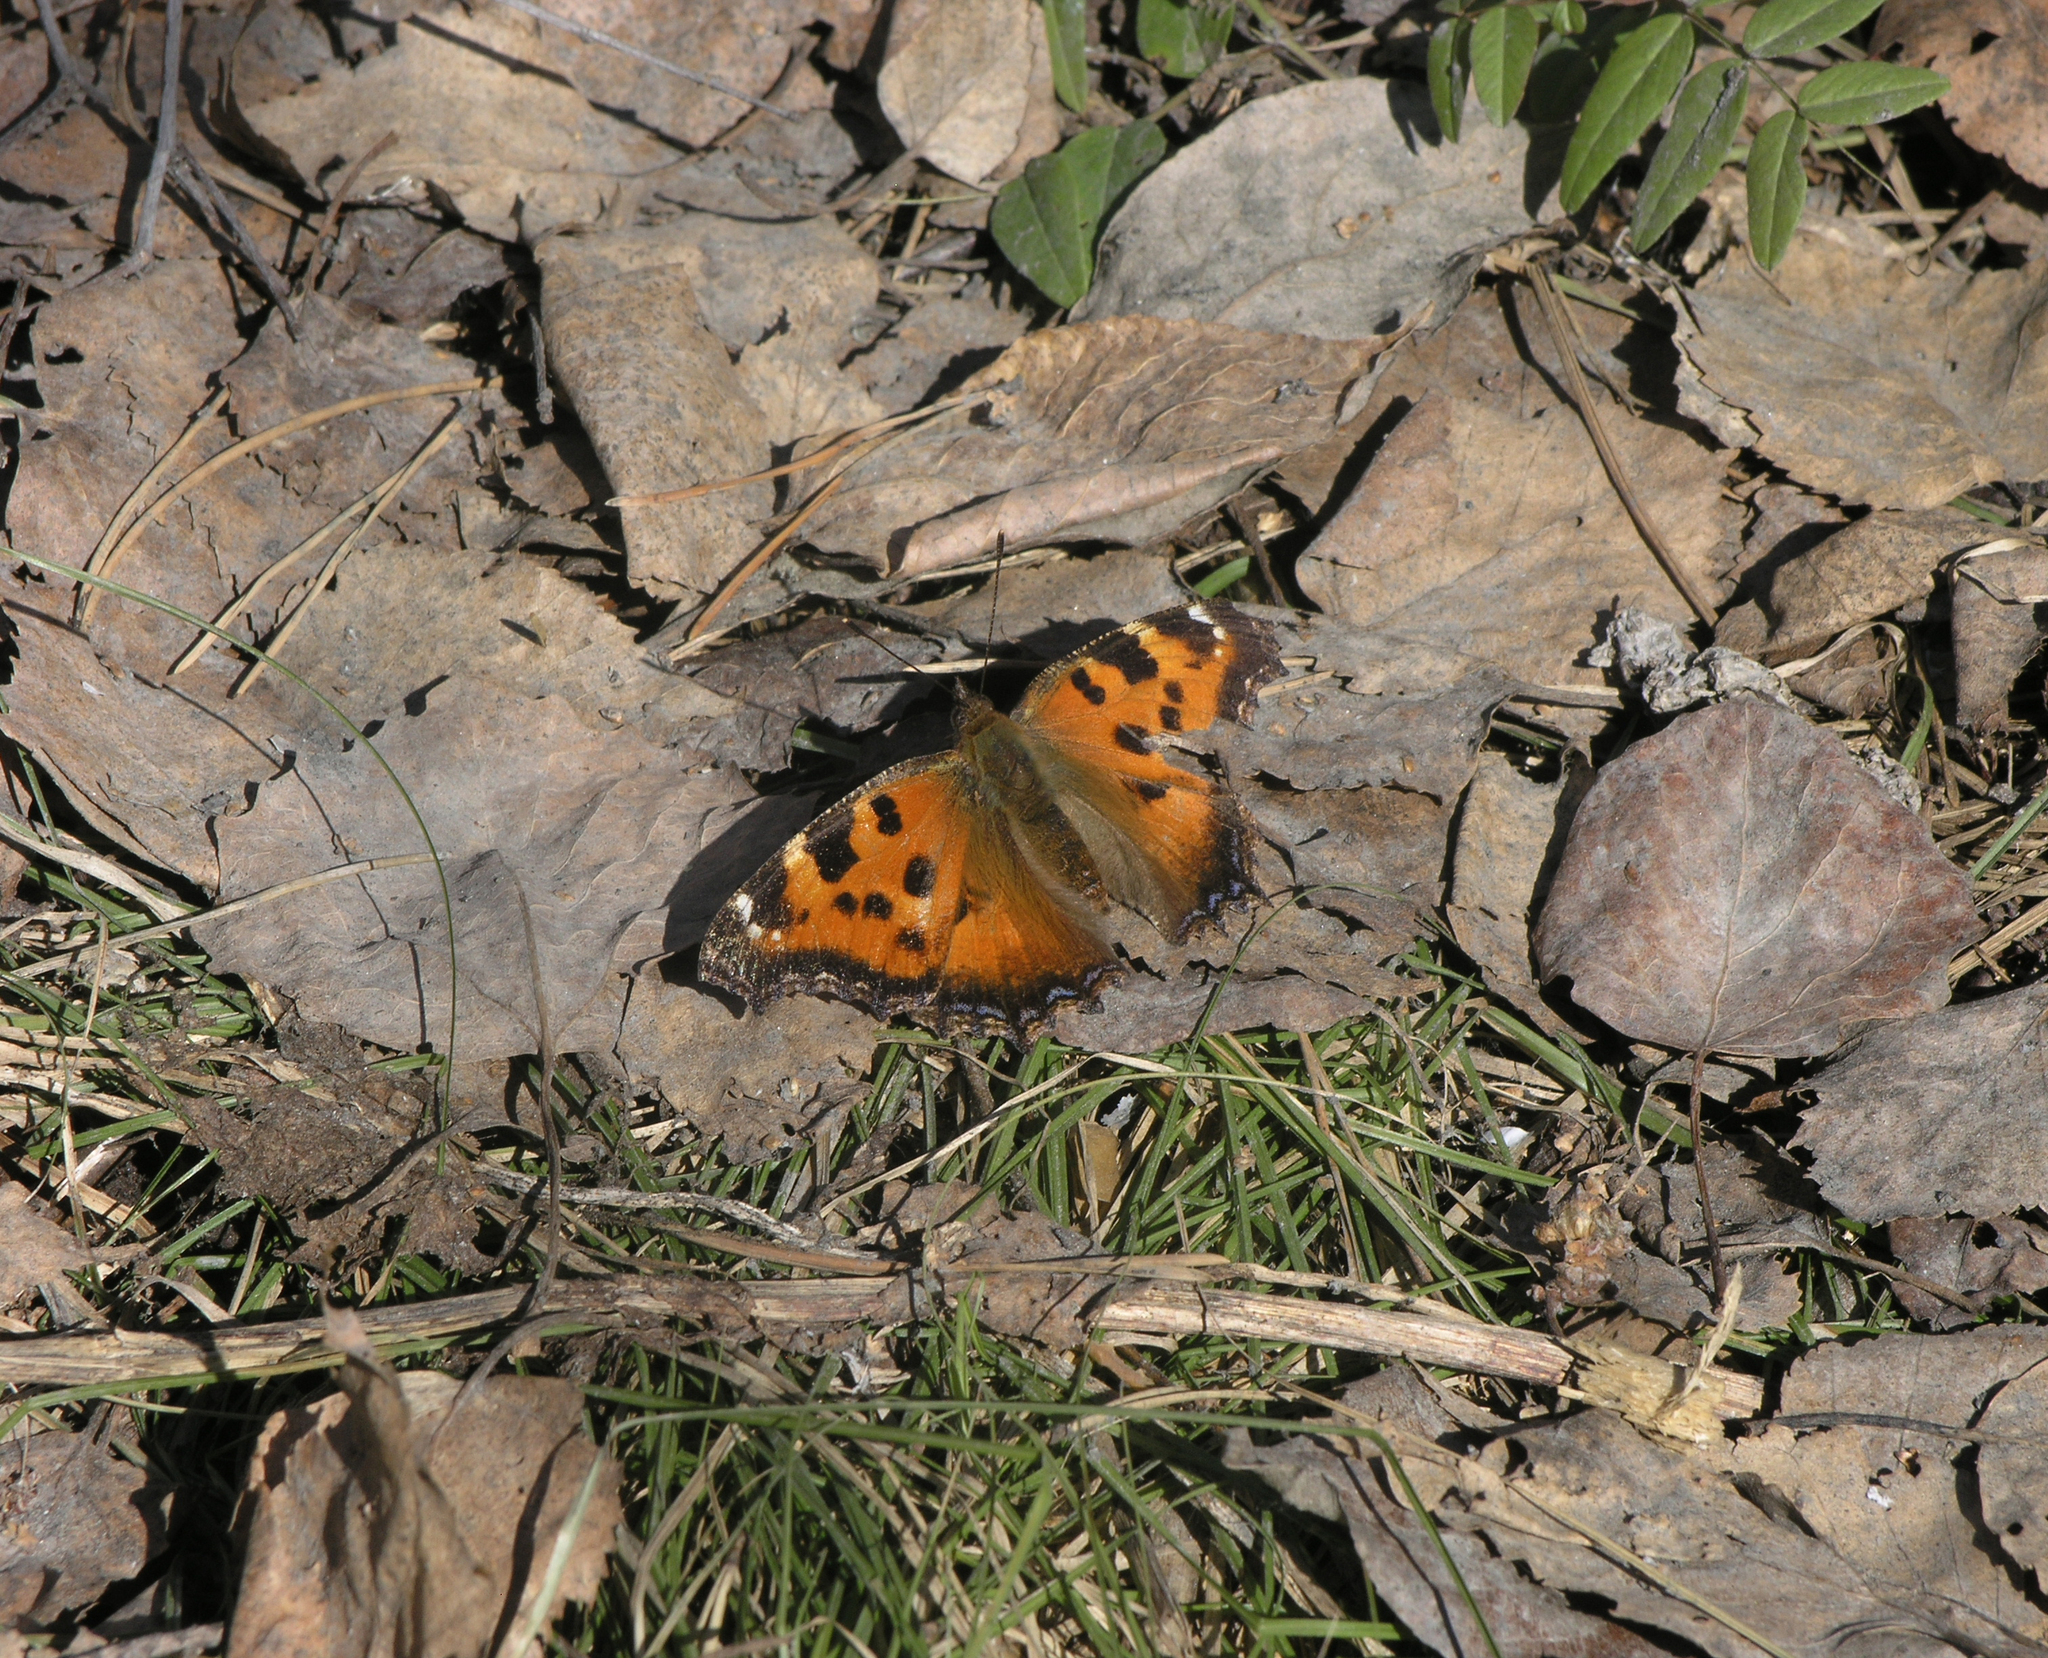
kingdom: Animalia
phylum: Arthropoda
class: Insecta
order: Lepidoptera
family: Nymphalidae
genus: Nymphalis
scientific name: Nymphalis xanthomelas
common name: Scarce tortoiseshell
